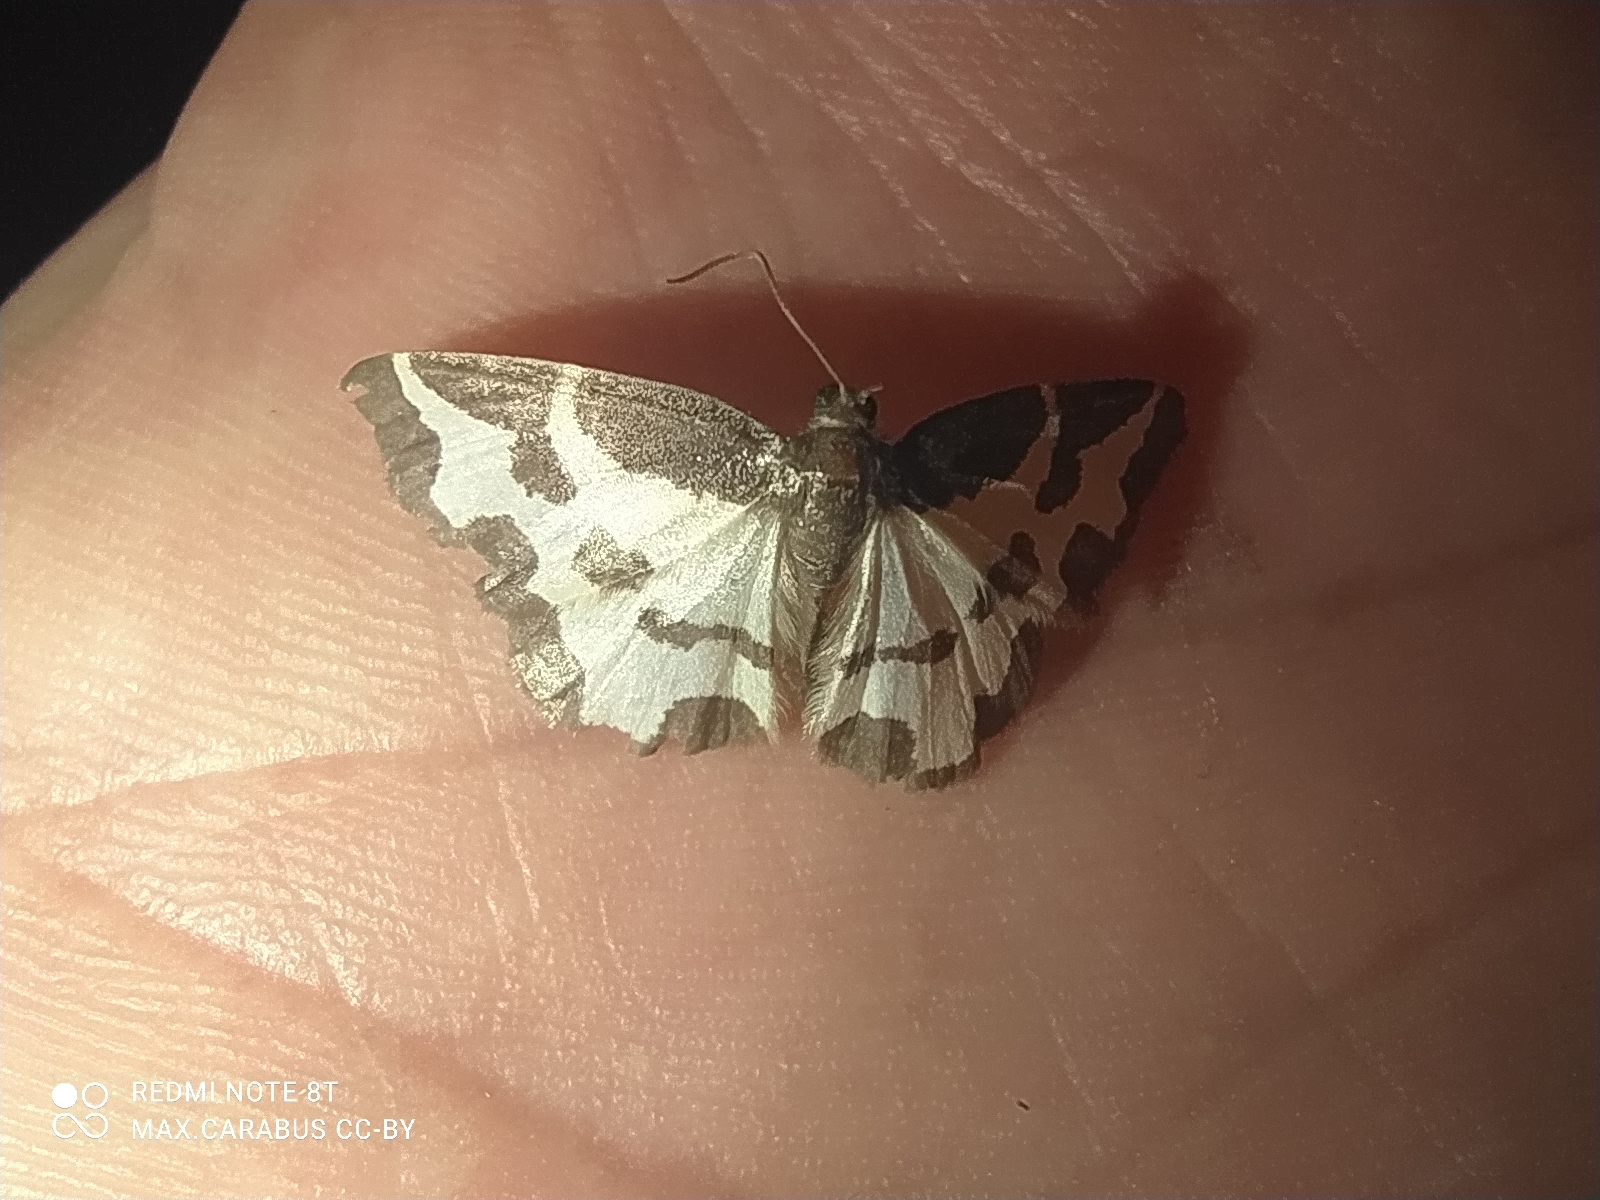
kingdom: Animalia
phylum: Arthropoda
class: Insecta
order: Lepidoptera
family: Geometridae
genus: Lomaspilis
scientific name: Lomaspilis marginata
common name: Clouded border
